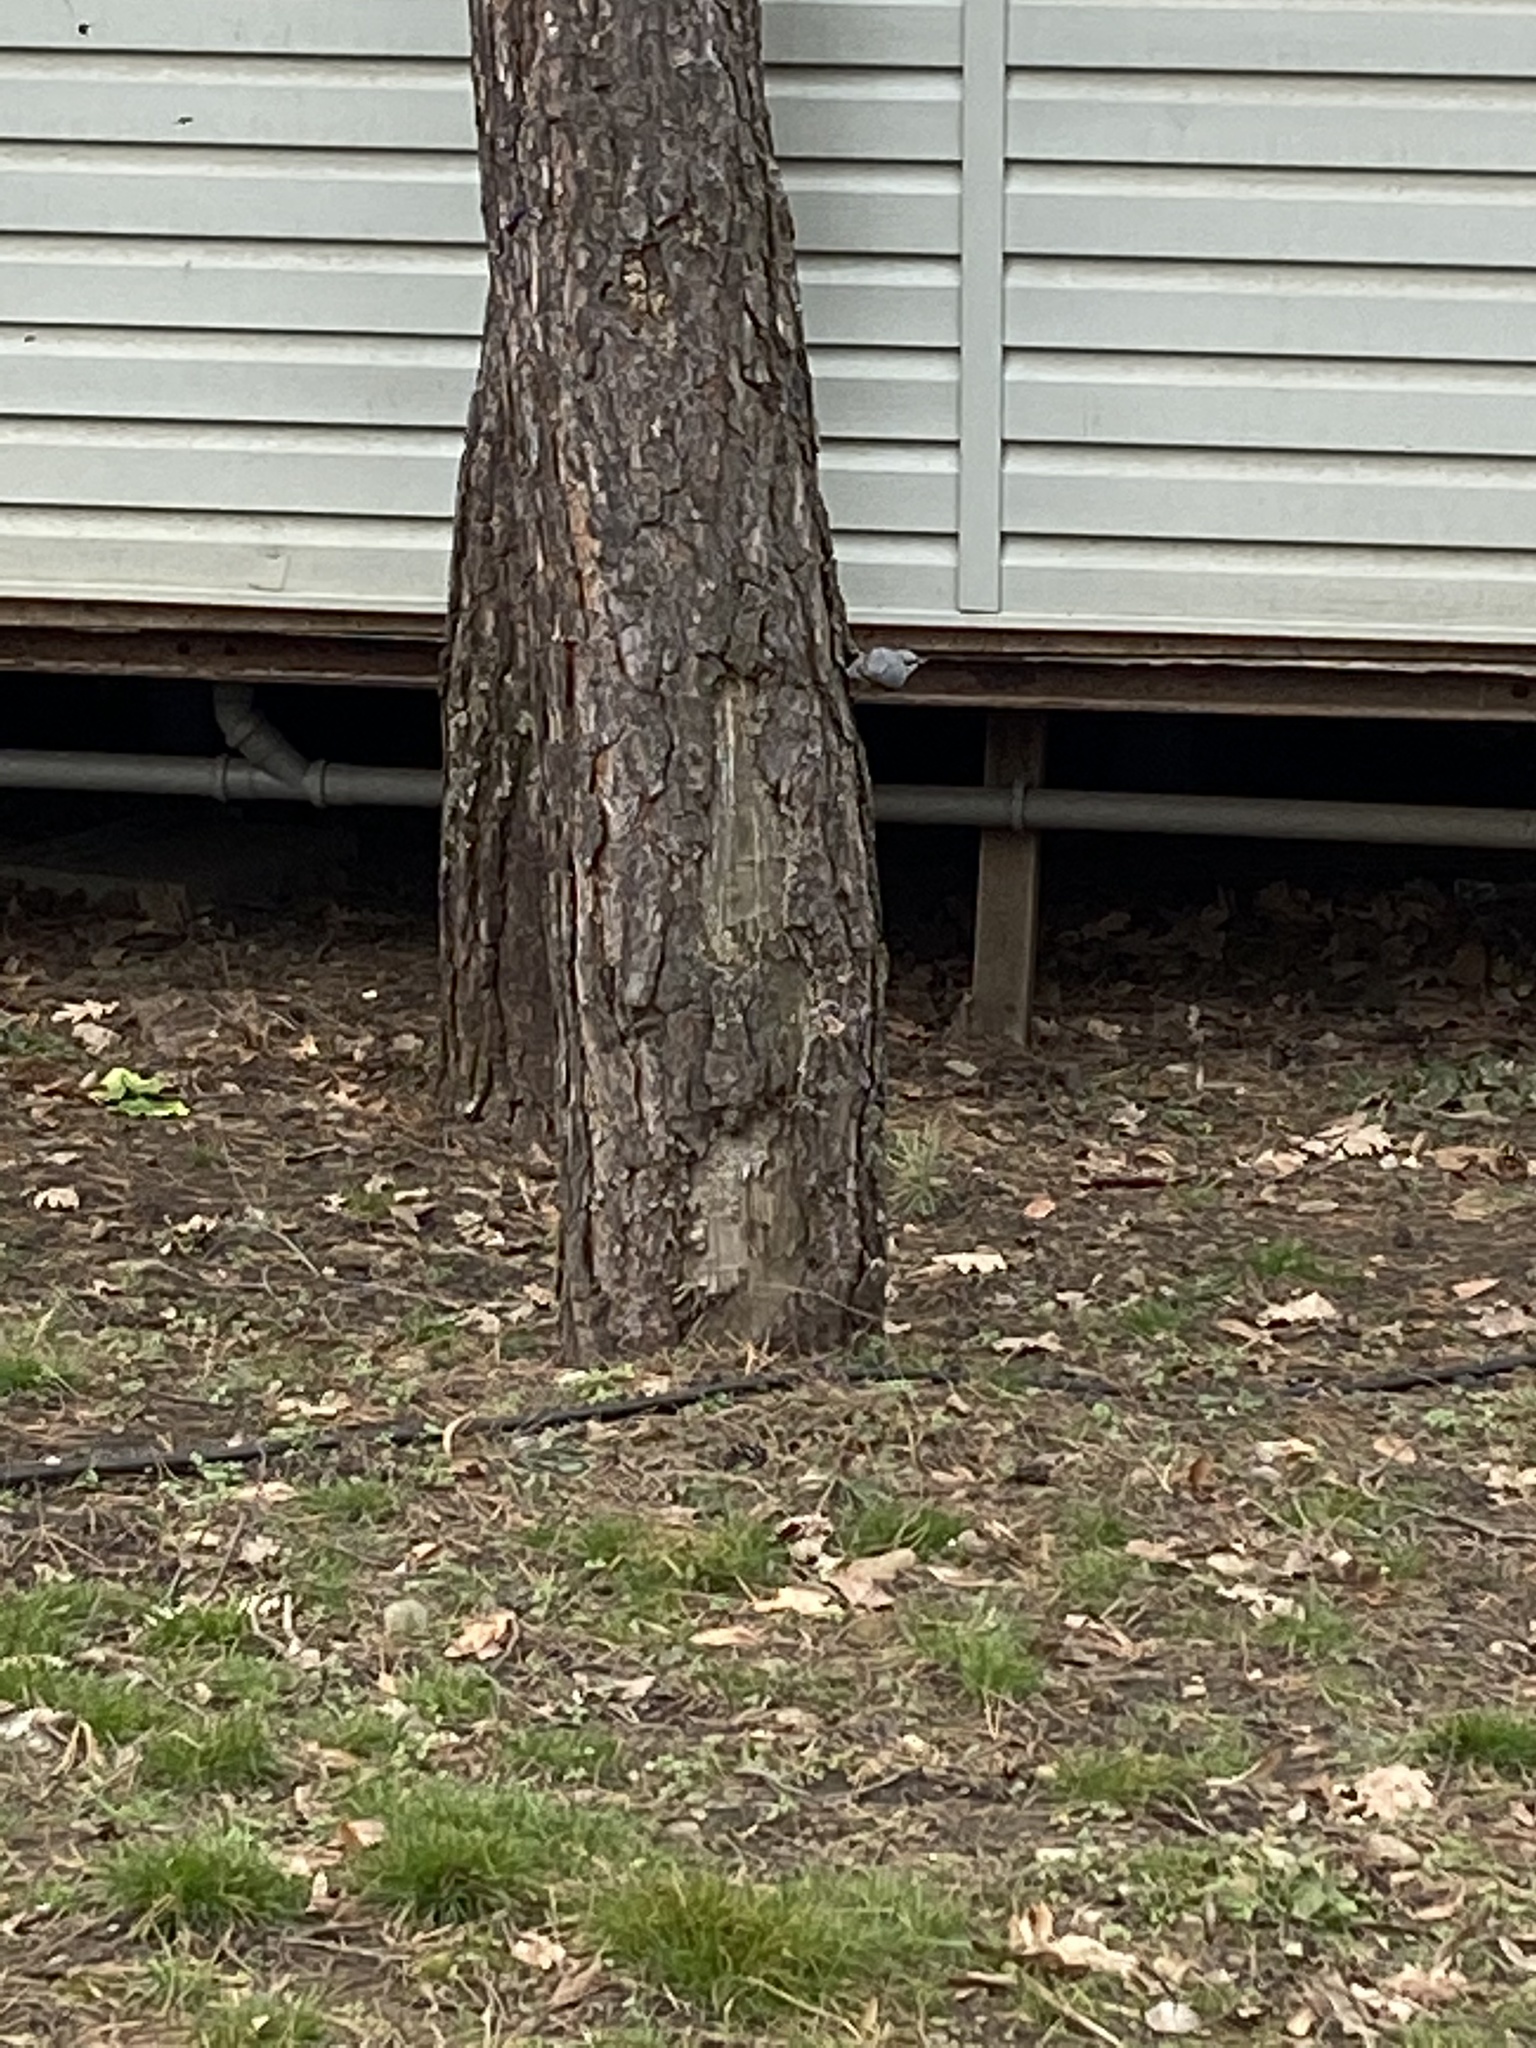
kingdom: Animalia
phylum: Chordata
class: Aves
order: Passeriformes
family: Sittidae
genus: Sitta
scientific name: Sitta europaea
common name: Eurasian nuthatch
